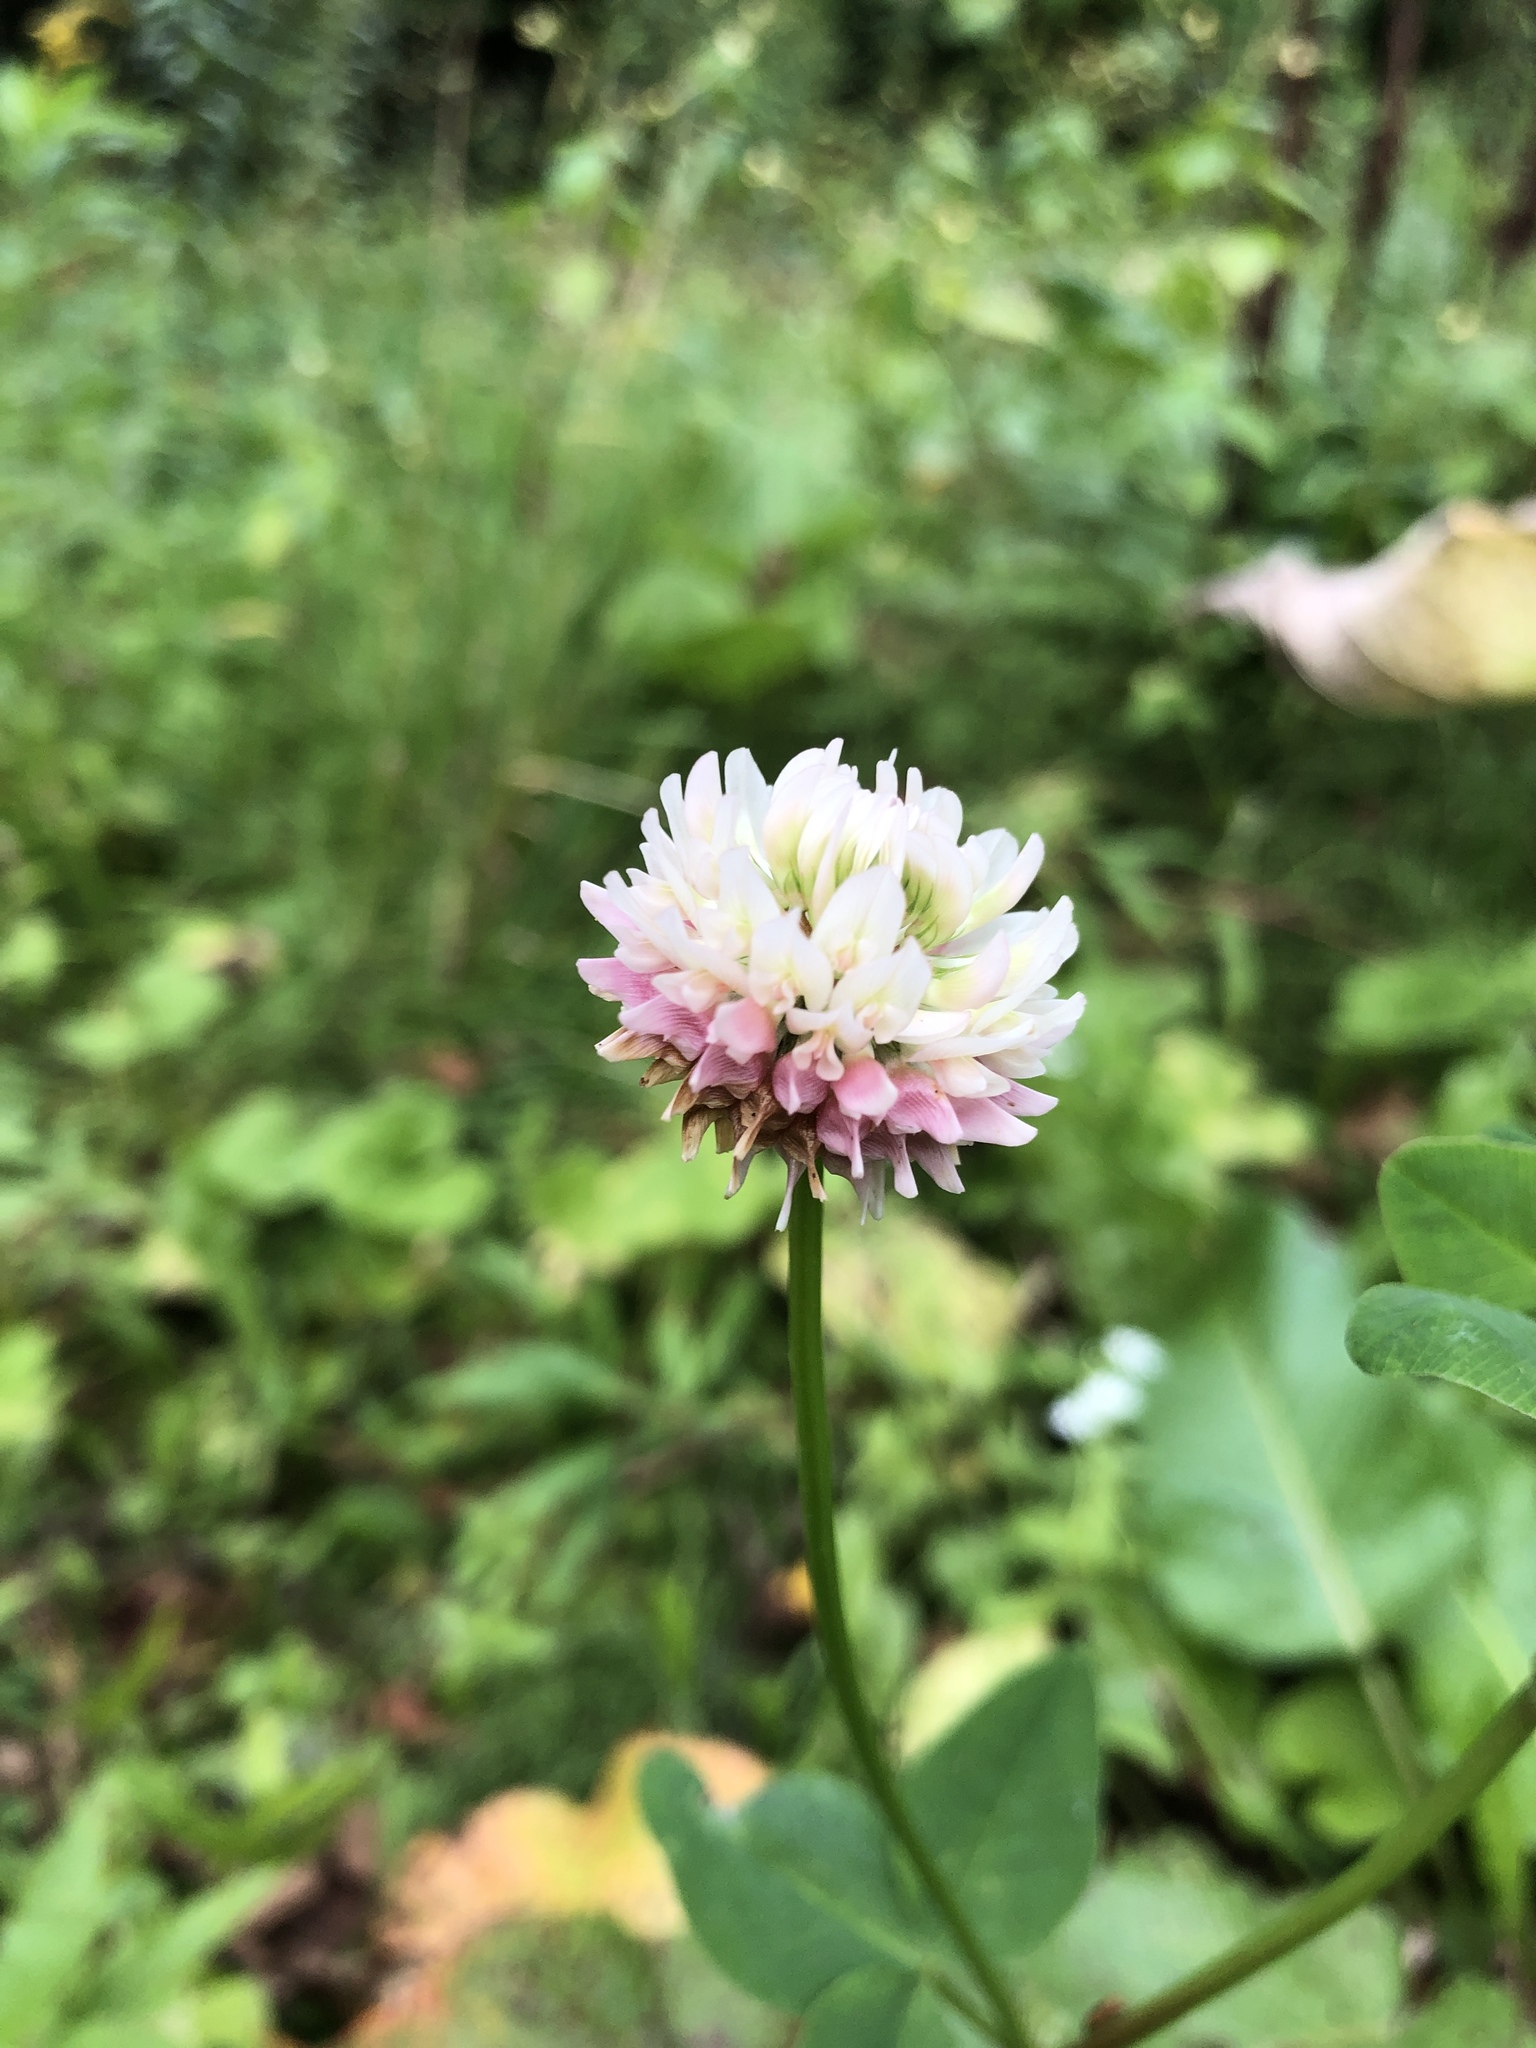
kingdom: Plantae
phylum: Tracheophyta
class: Magnoliopsida
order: Fabales
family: Fabaceae
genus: Trifolium
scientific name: Trifolium hybridum
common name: Alsike clover
